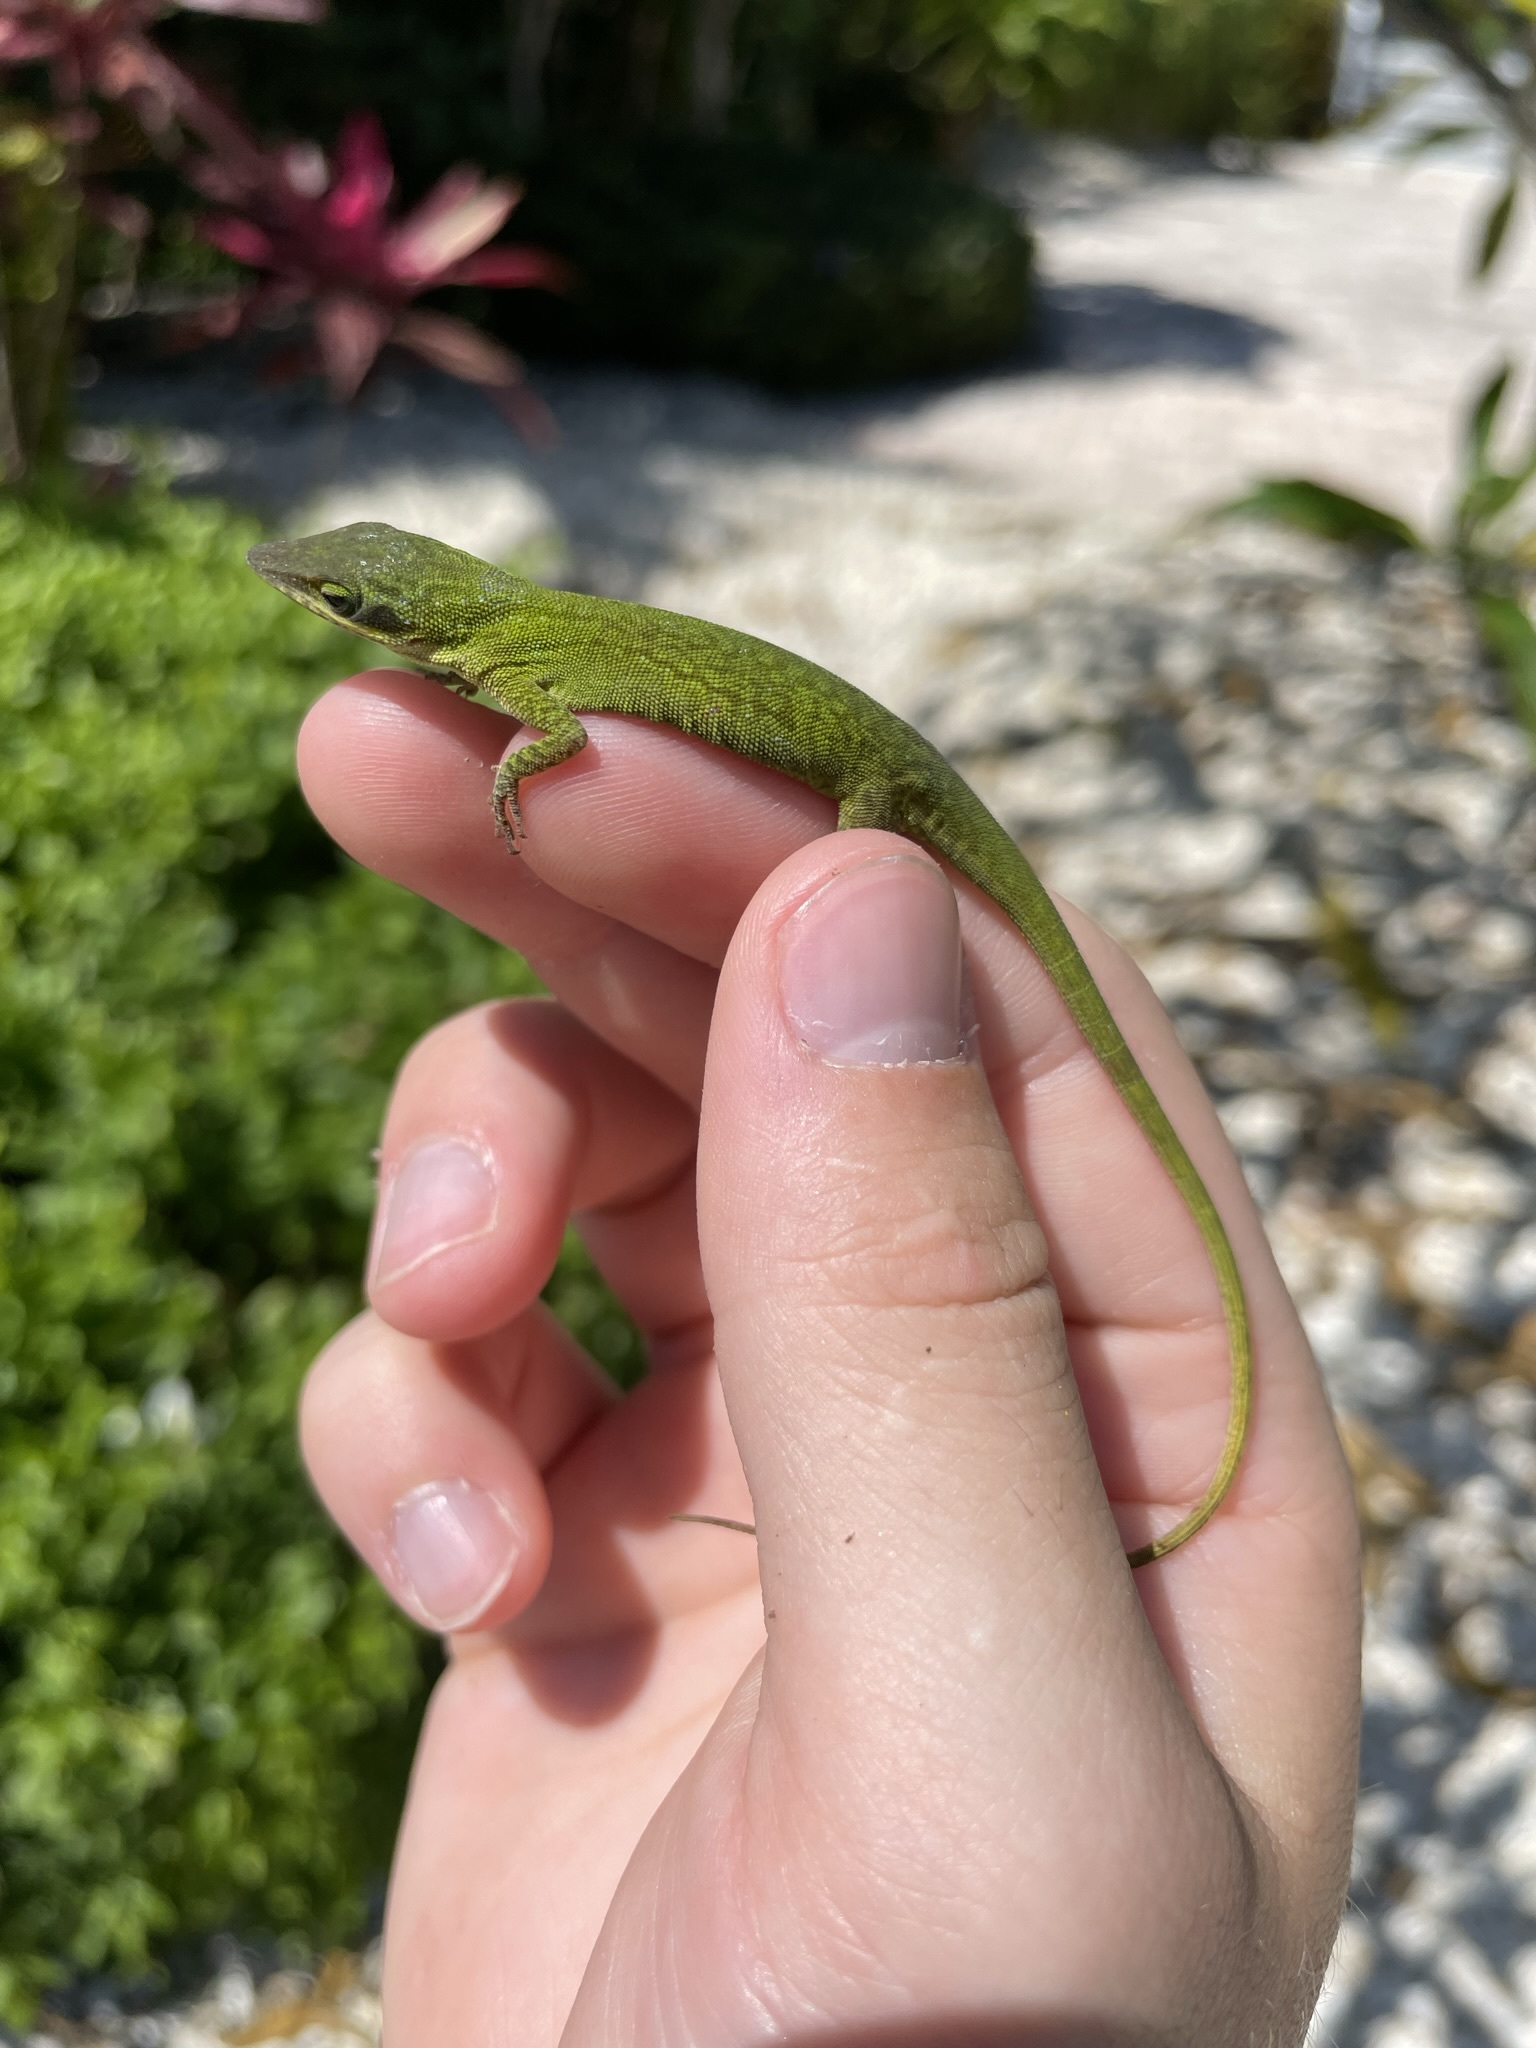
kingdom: Animalia
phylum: Chordata
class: Squamata
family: Dactyloidae
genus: Anolis
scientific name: Anolis carolinensis
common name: Green anole
